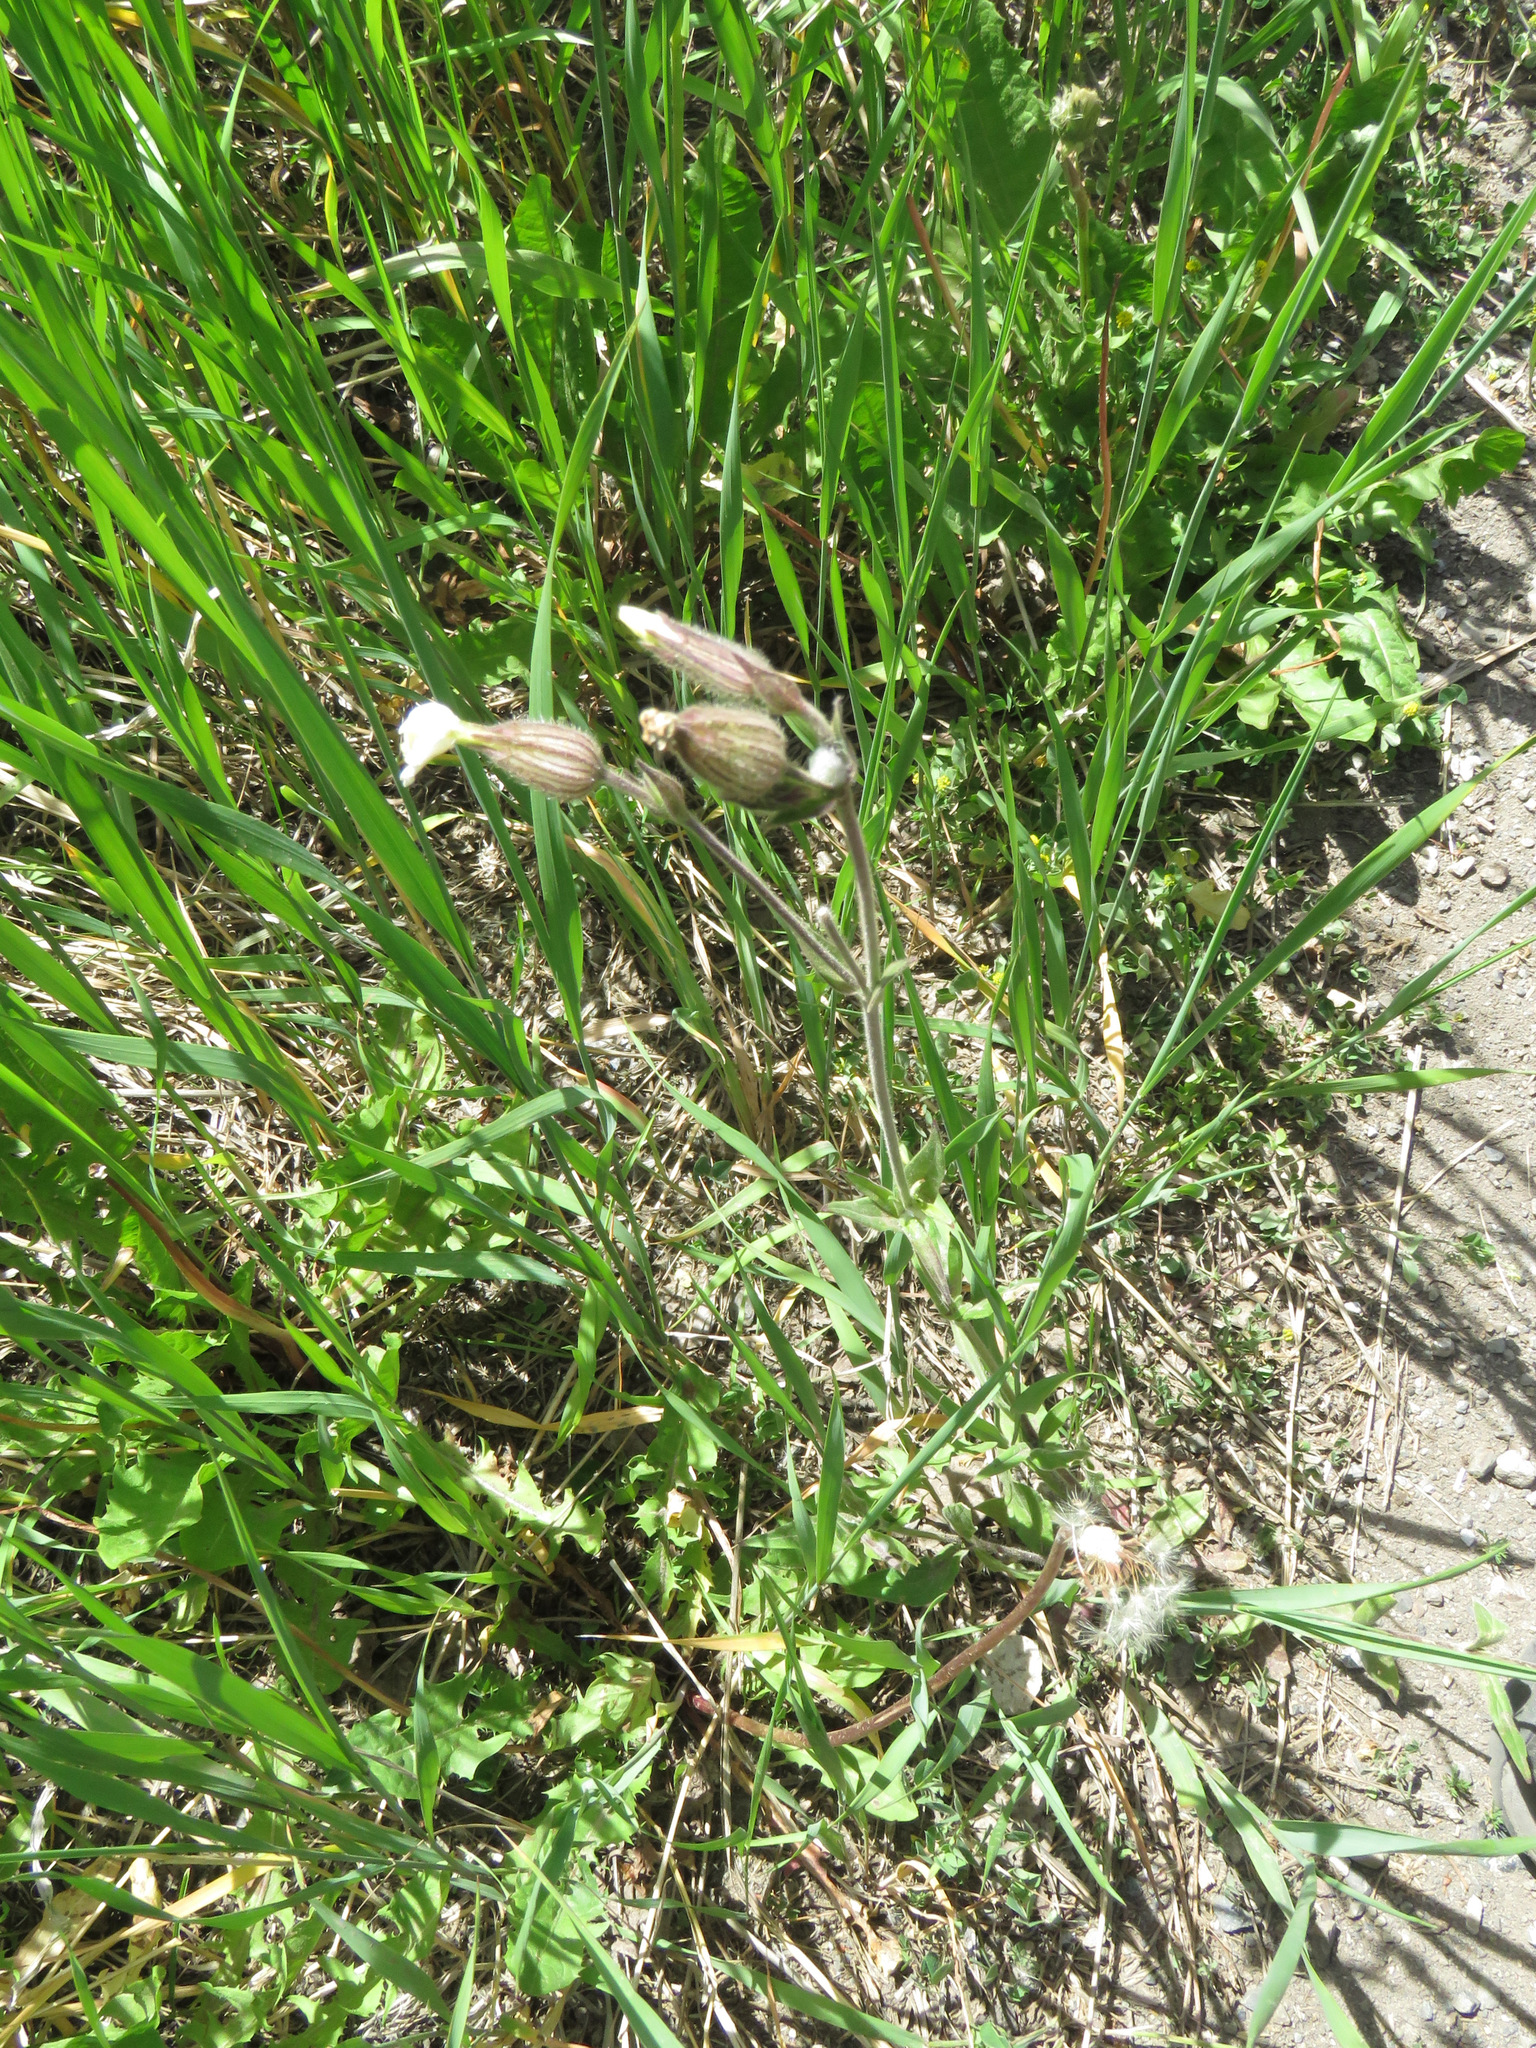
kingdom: Plantae
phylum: Tracheophyta
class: Magnoliopsida
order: Caryophyllales
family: Caryophyllaceae
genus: Silene
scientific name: Silene latifolia
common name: White campion
